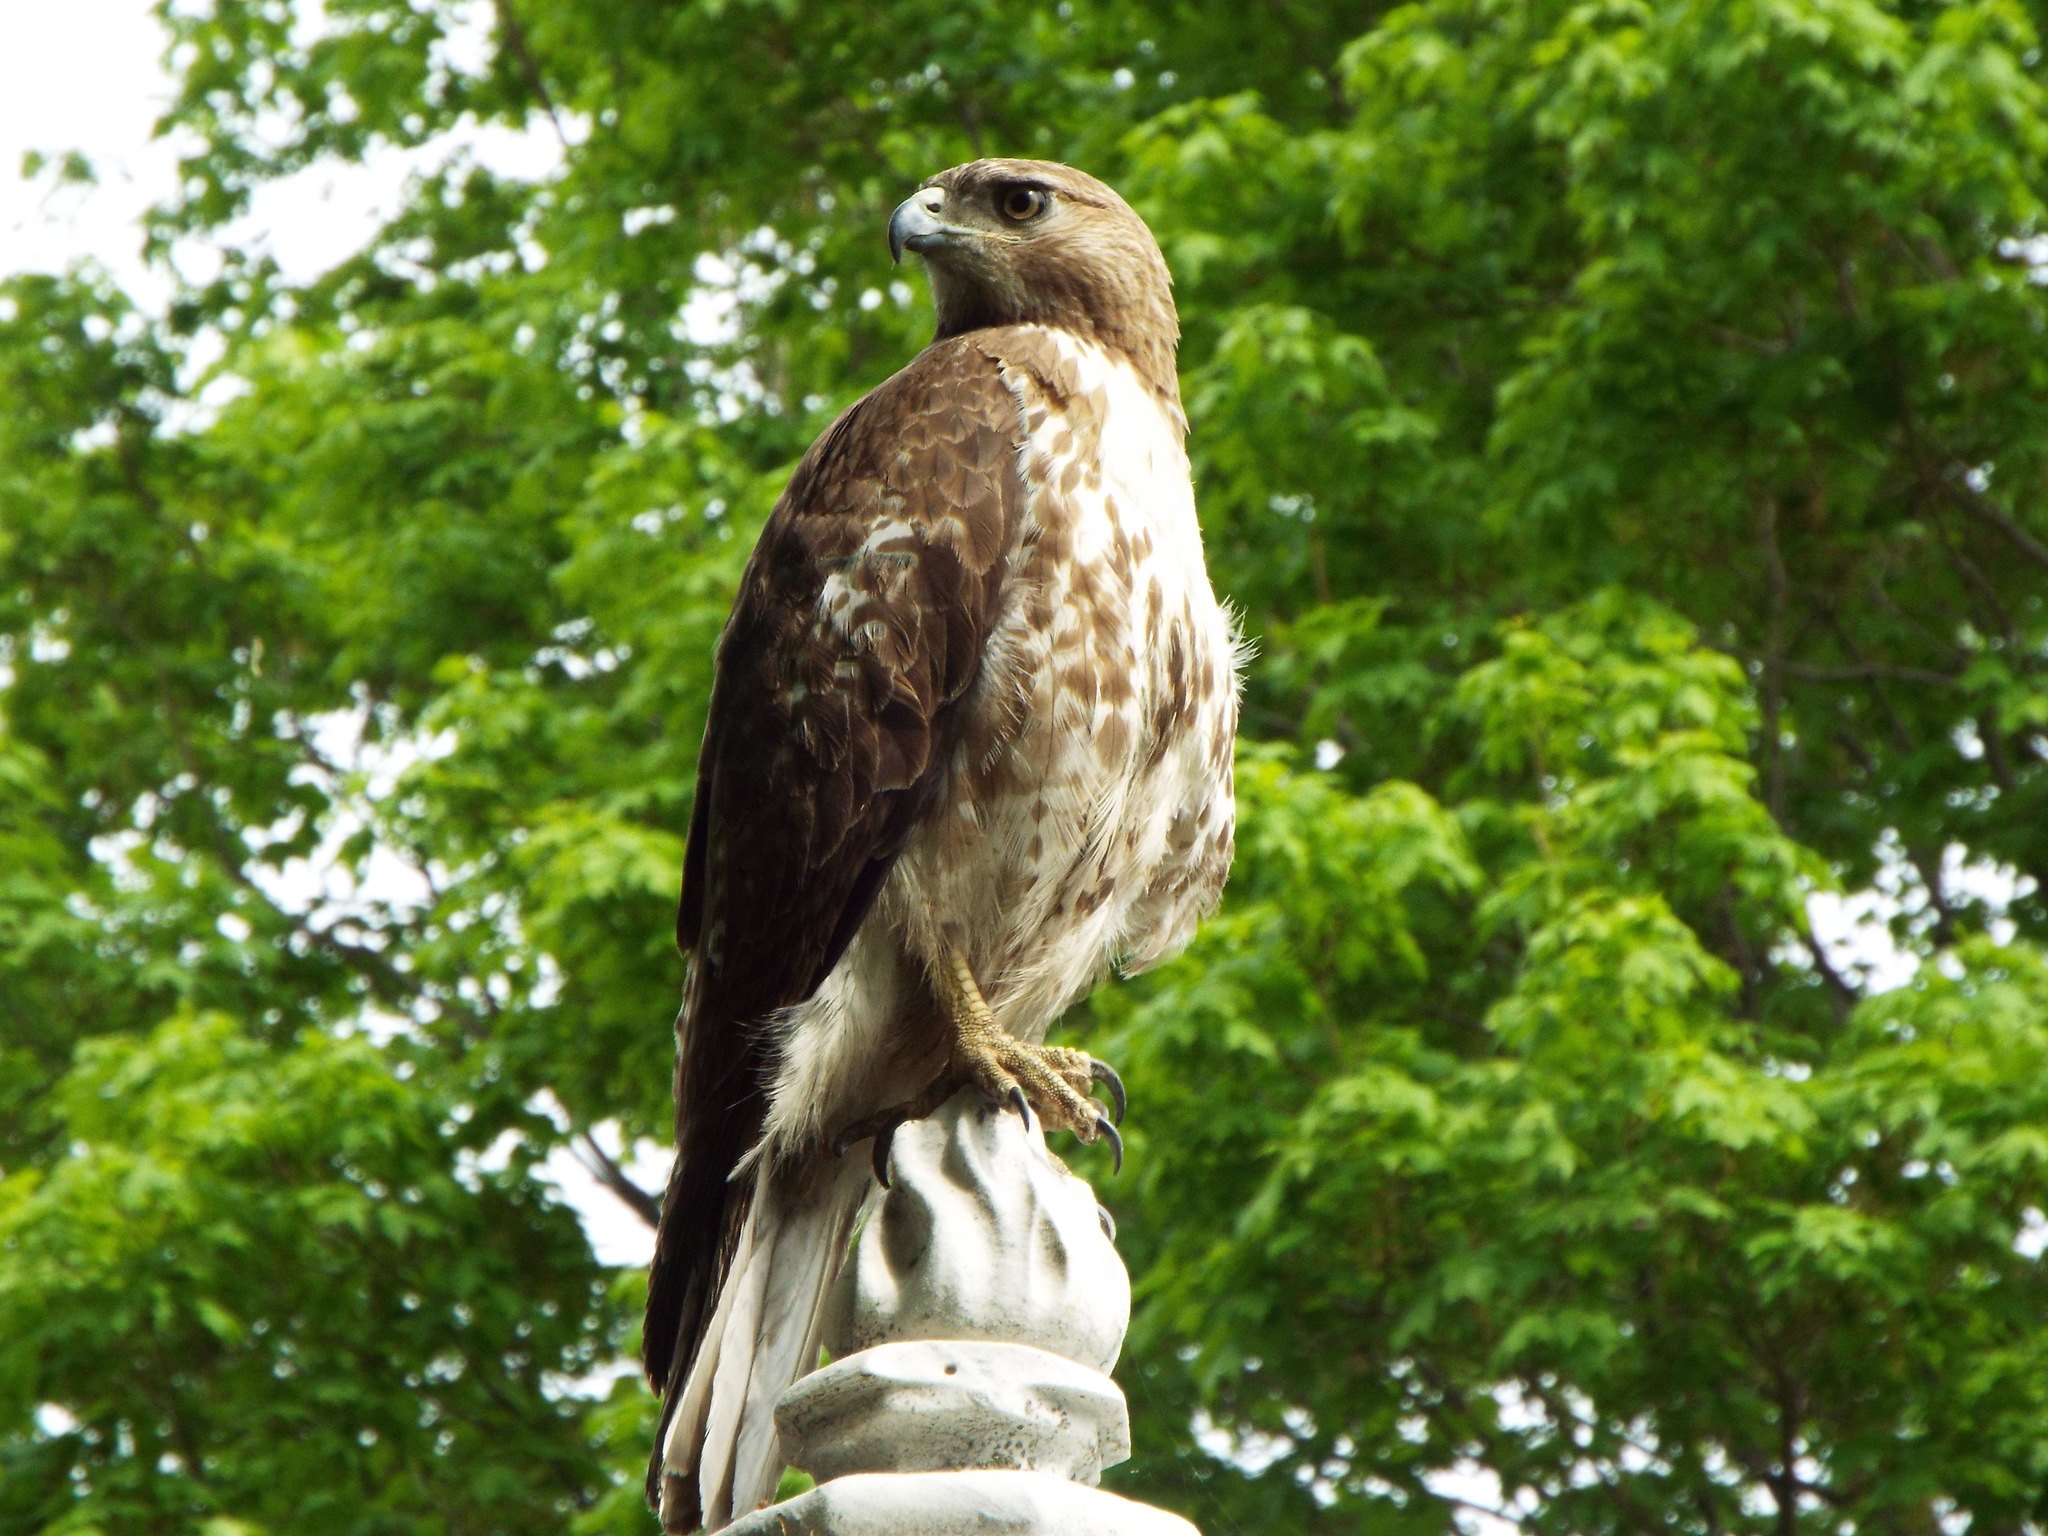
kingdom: Animalia
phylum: Chordata
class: Aves
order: Accipitriformes
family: Accipitridae
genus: Buteo
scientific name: Buteo jamaicensis
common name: Red-tailed hawk
